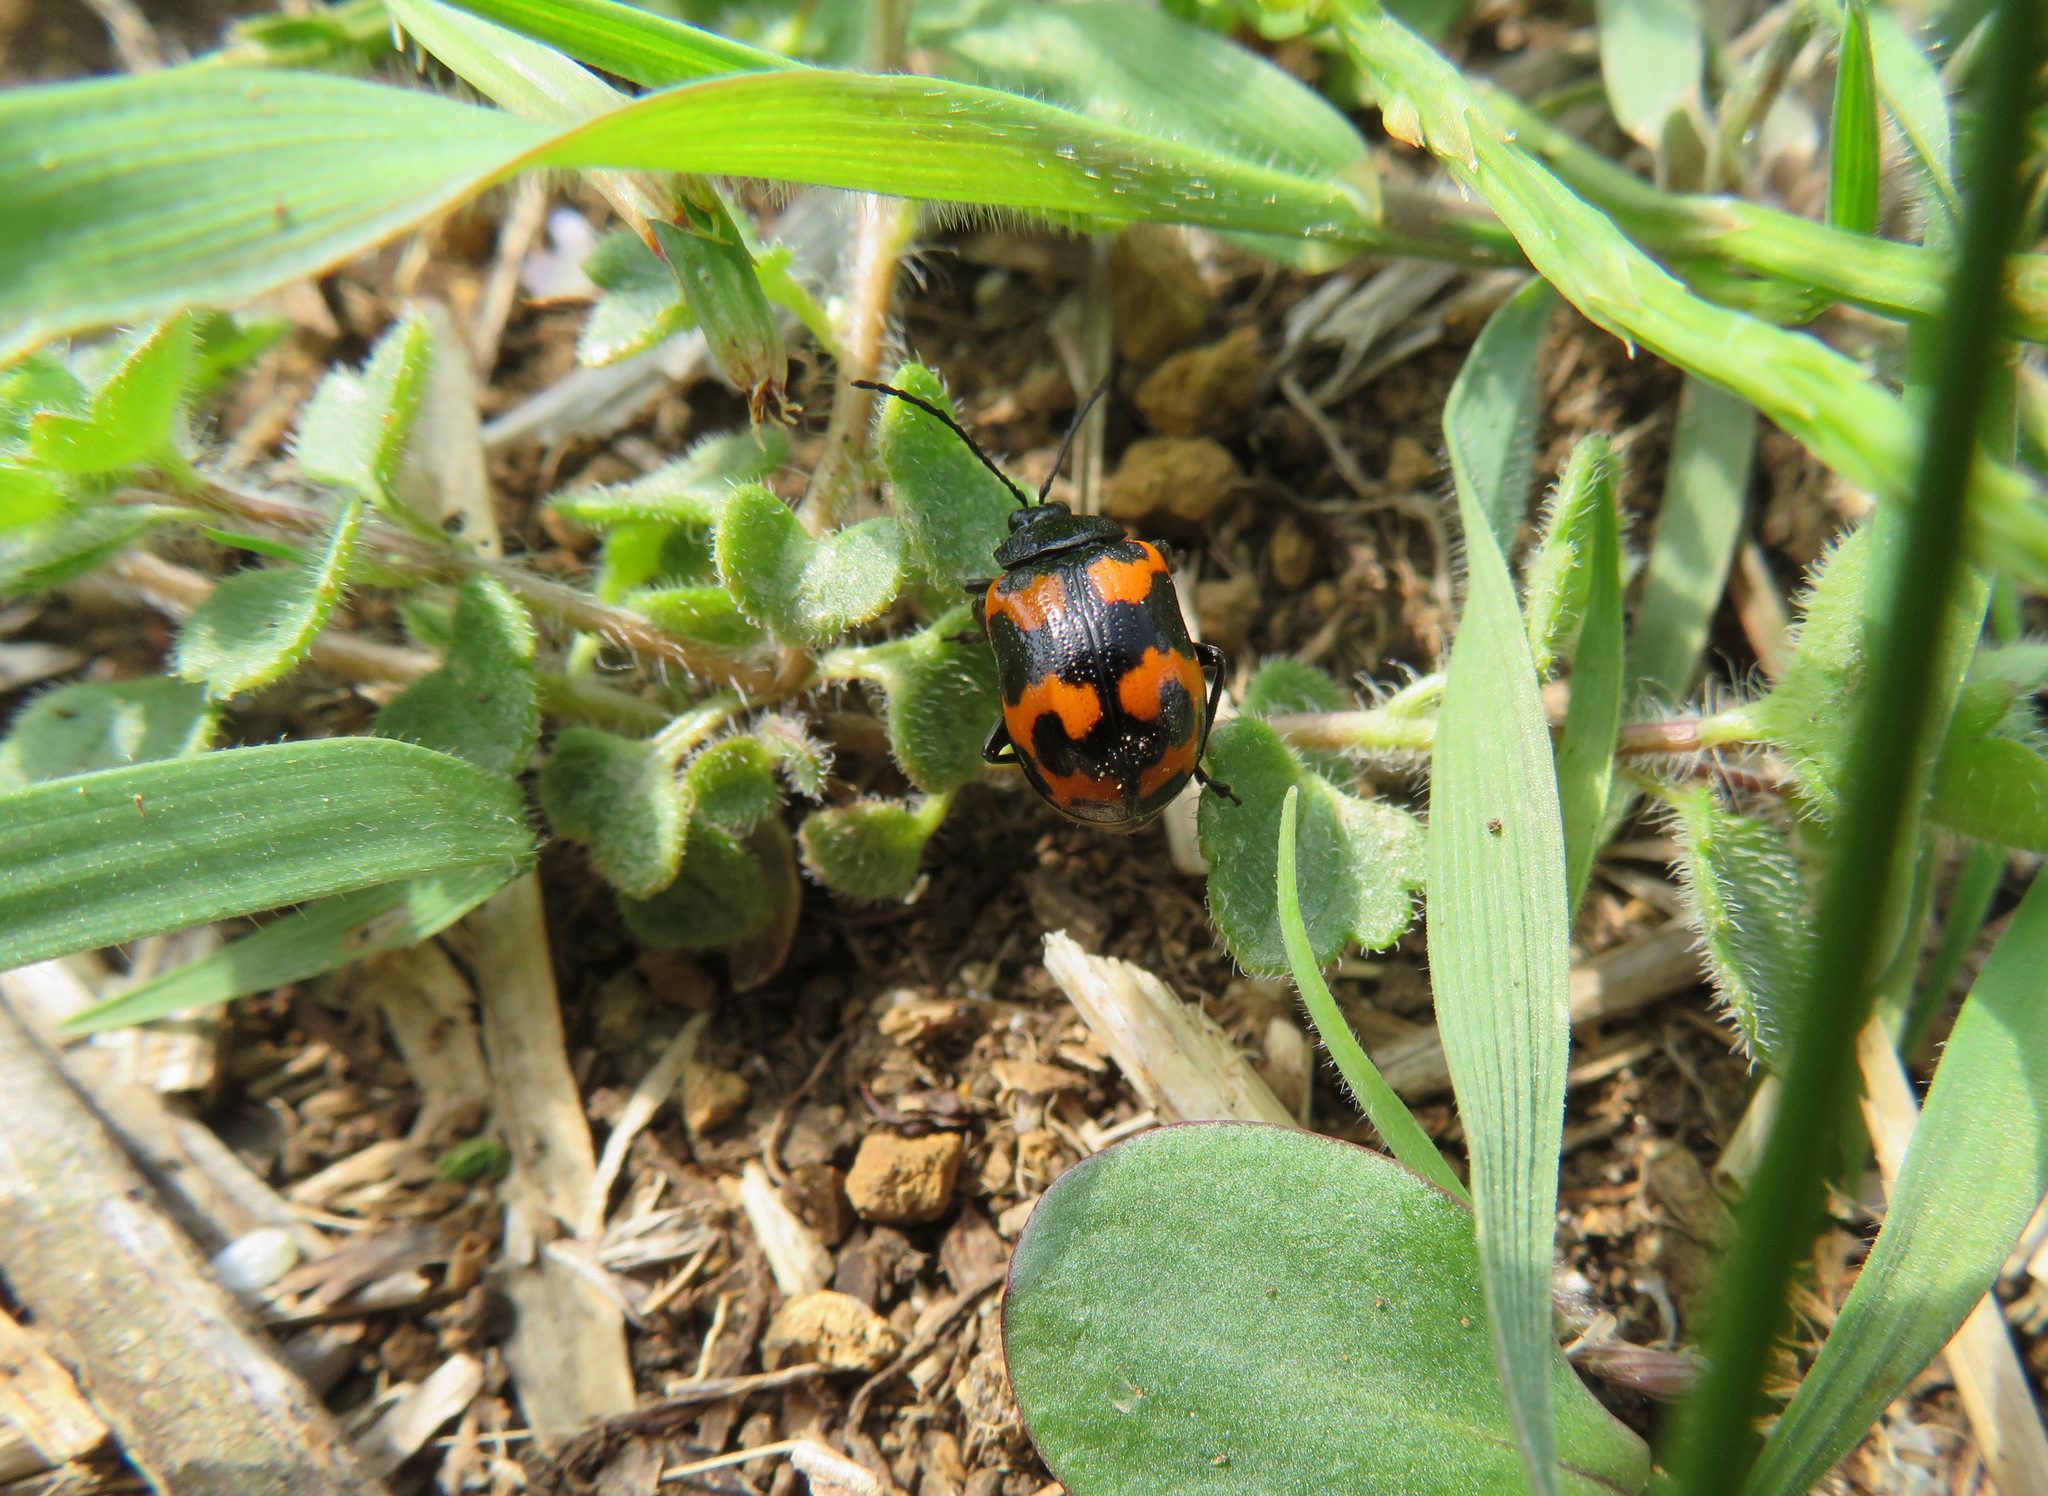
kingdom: Animalia
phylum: Arthropoda
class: Insecta
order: Coleoptera
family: Chrysomelidae
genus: Gallerucida
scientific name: Gallerucida bifasciata
